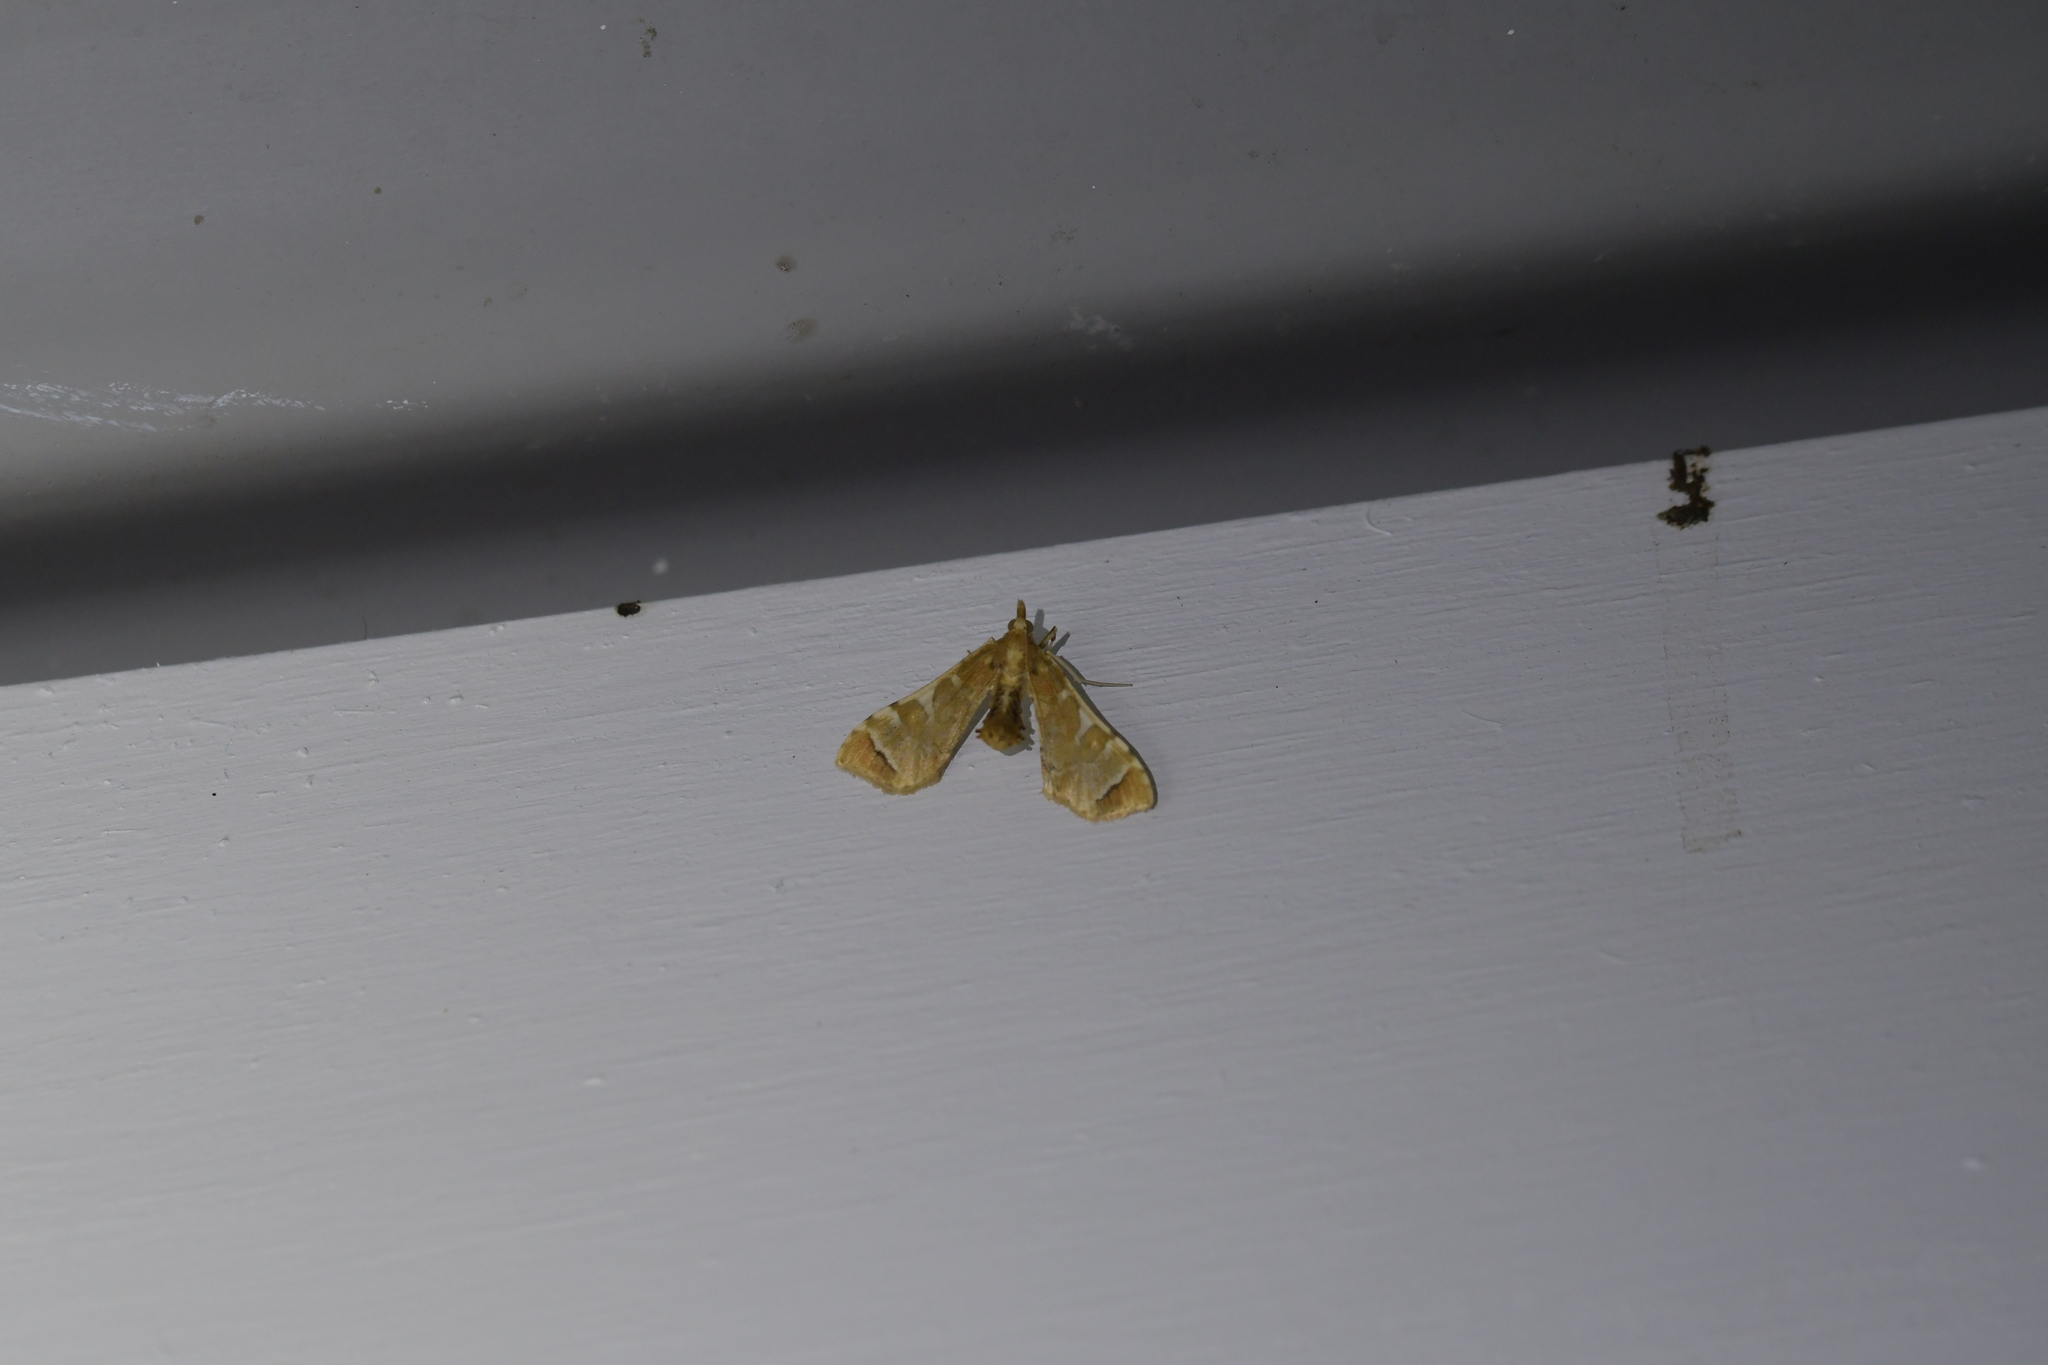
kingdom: Animalia
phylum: Arthropoda
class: Insecta
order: Lepidoptera
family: Crambidae
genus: Sceliodes
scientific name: Sceliodes cordalis
